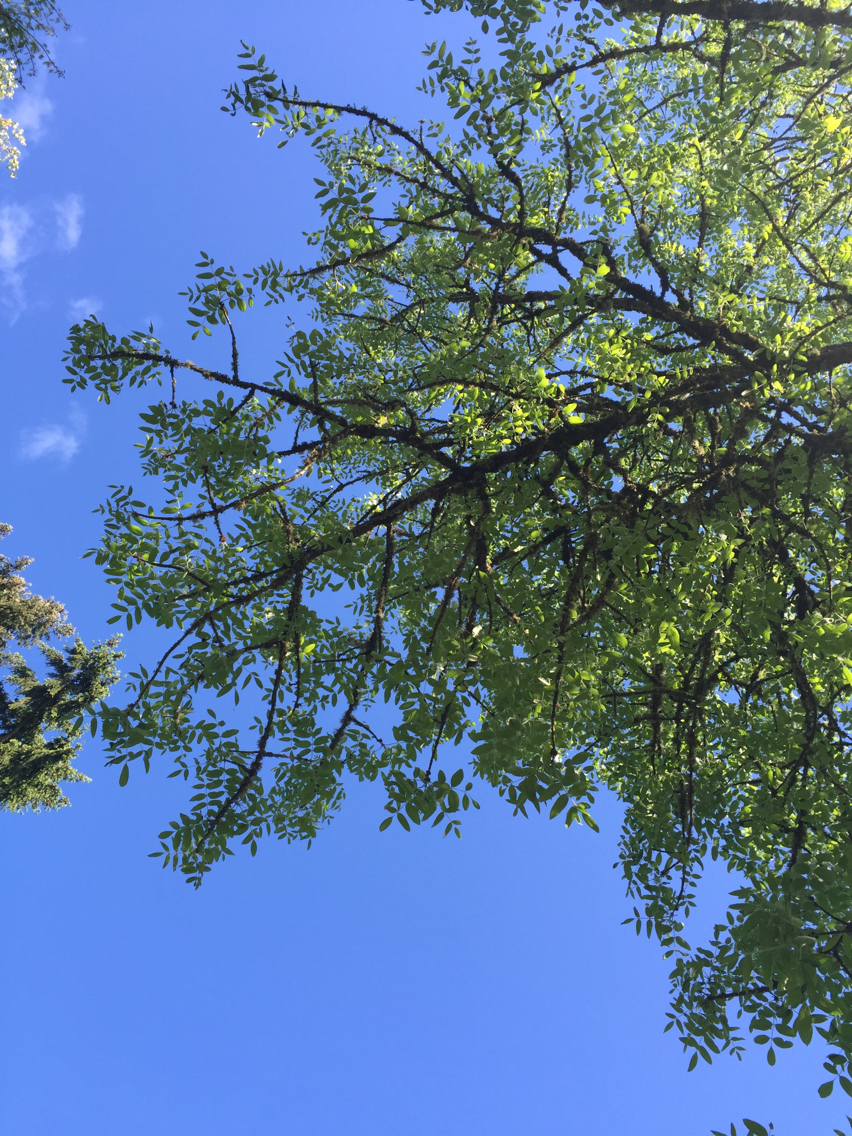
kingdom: Plantae
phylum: Tracheophyta
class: Magnoliopsida
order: Lamiales
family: Oleaceae
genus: Fraxinus
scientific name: Fraxinus latifolia
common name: Oregon ash
